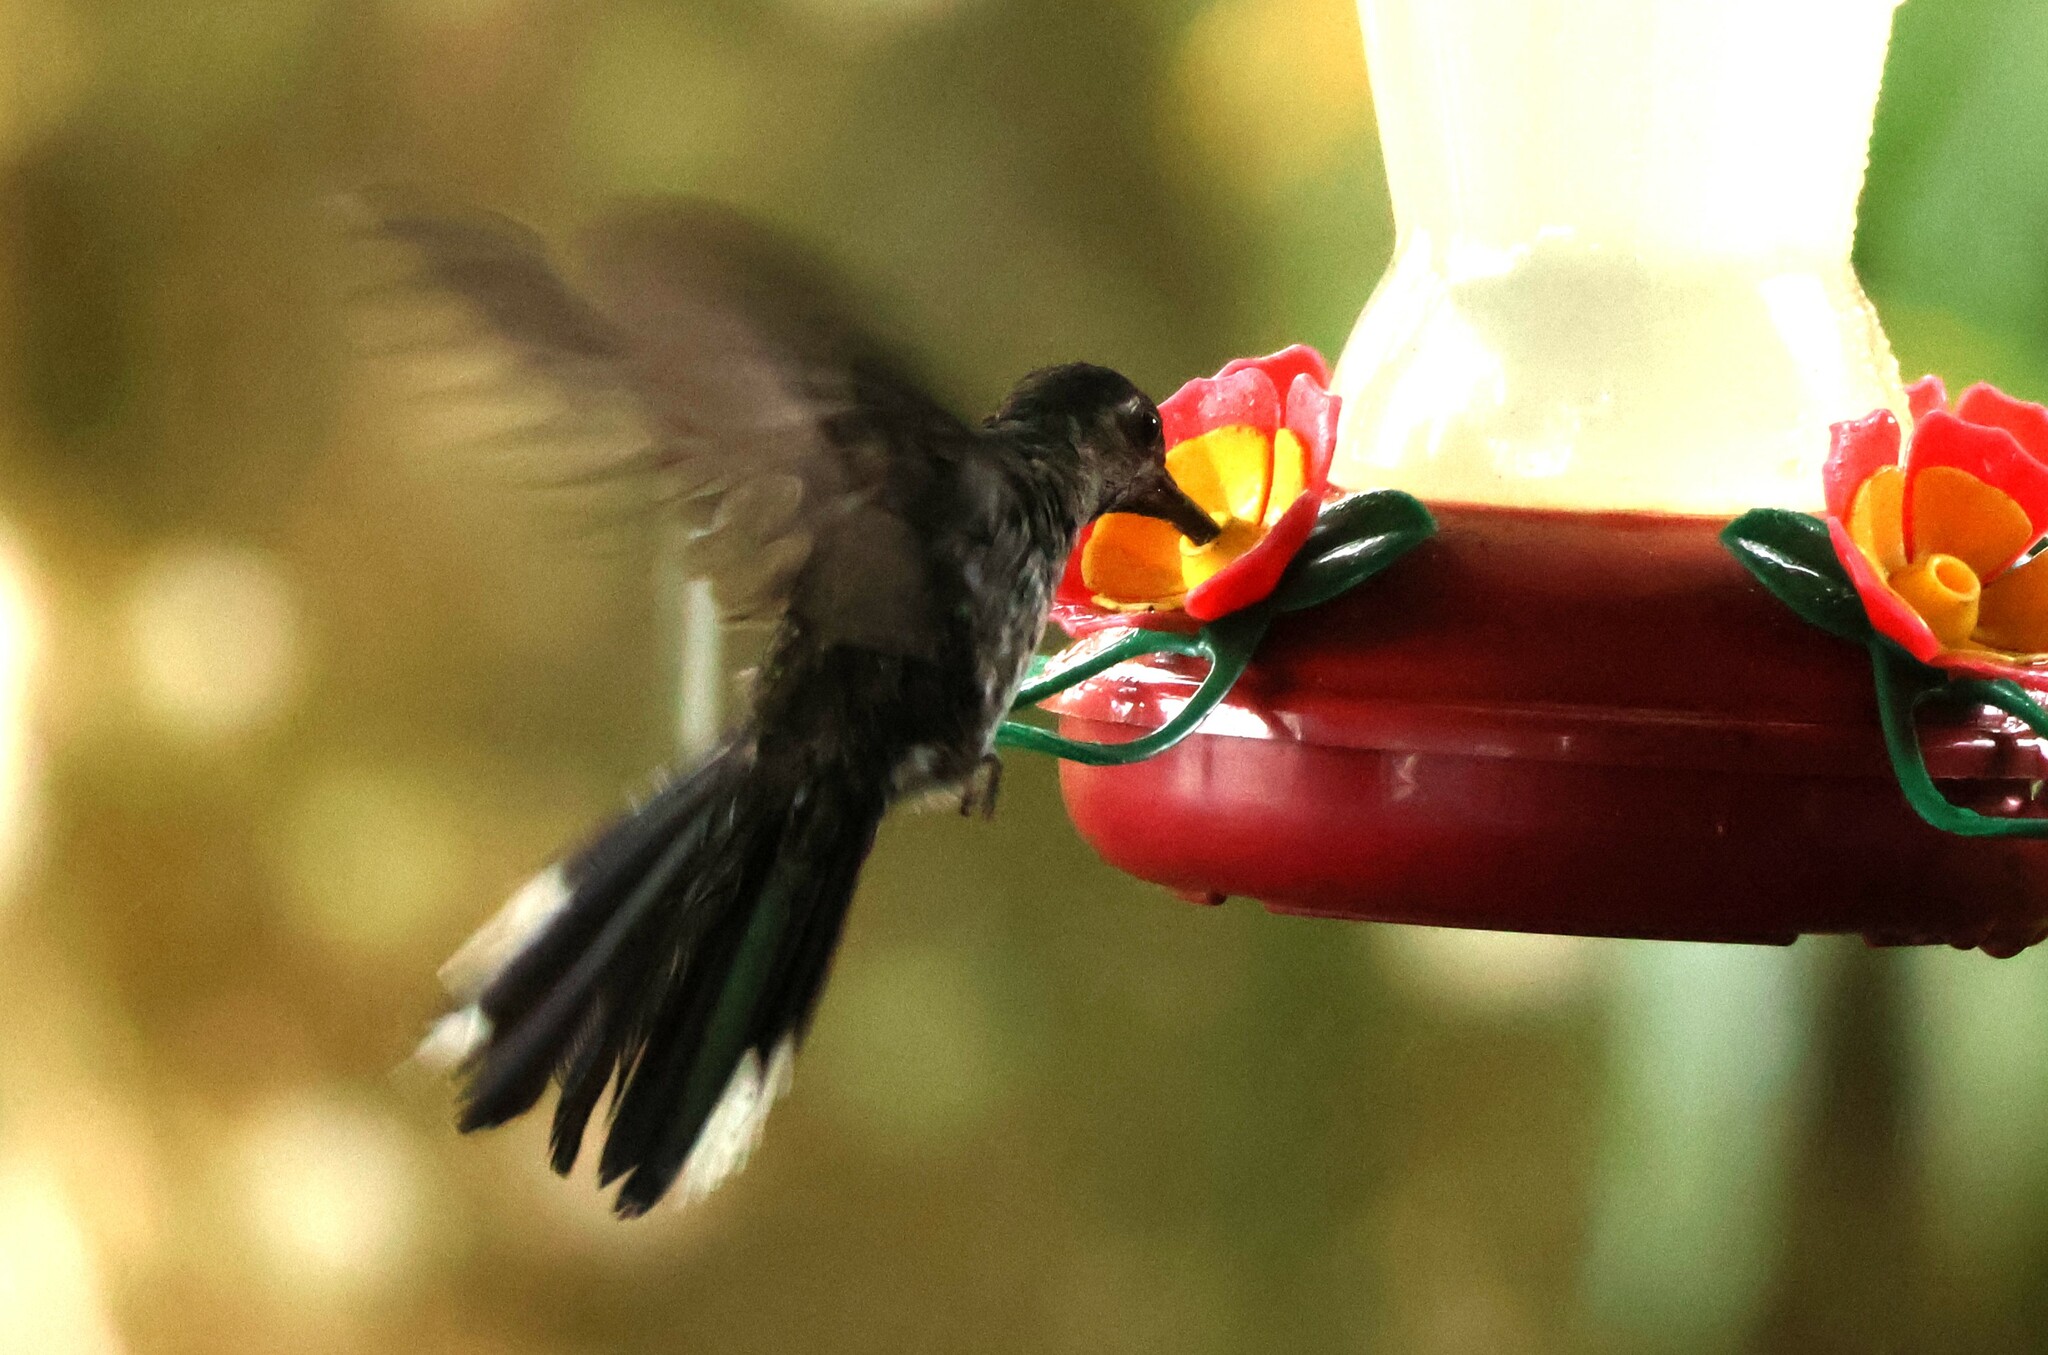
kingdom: Animalia
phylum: Chordata
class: Aves
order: Apodiformes
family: Trochilidae
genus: Campylopterus
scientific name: Campylopterus hemileucurus
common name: Violet sabrewing
